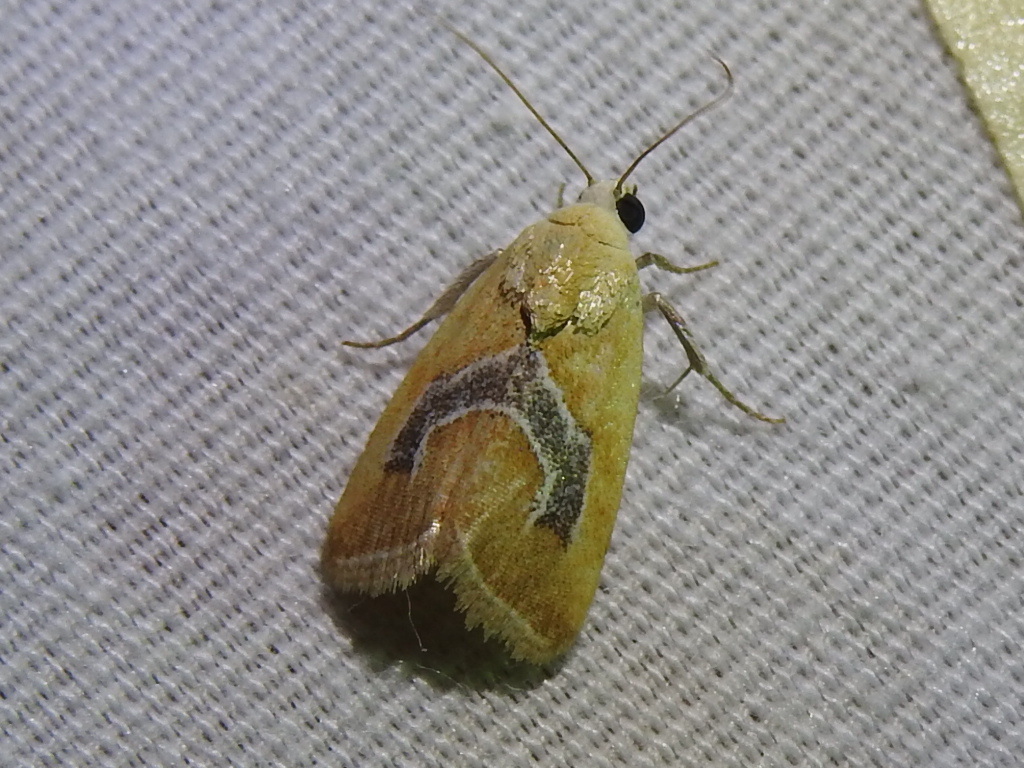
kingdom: Animalia
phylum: Arthropoda
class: Insecta
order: Lepidoptera
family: Noctuidae
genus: Ponometia
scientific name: Ponometia venustula
